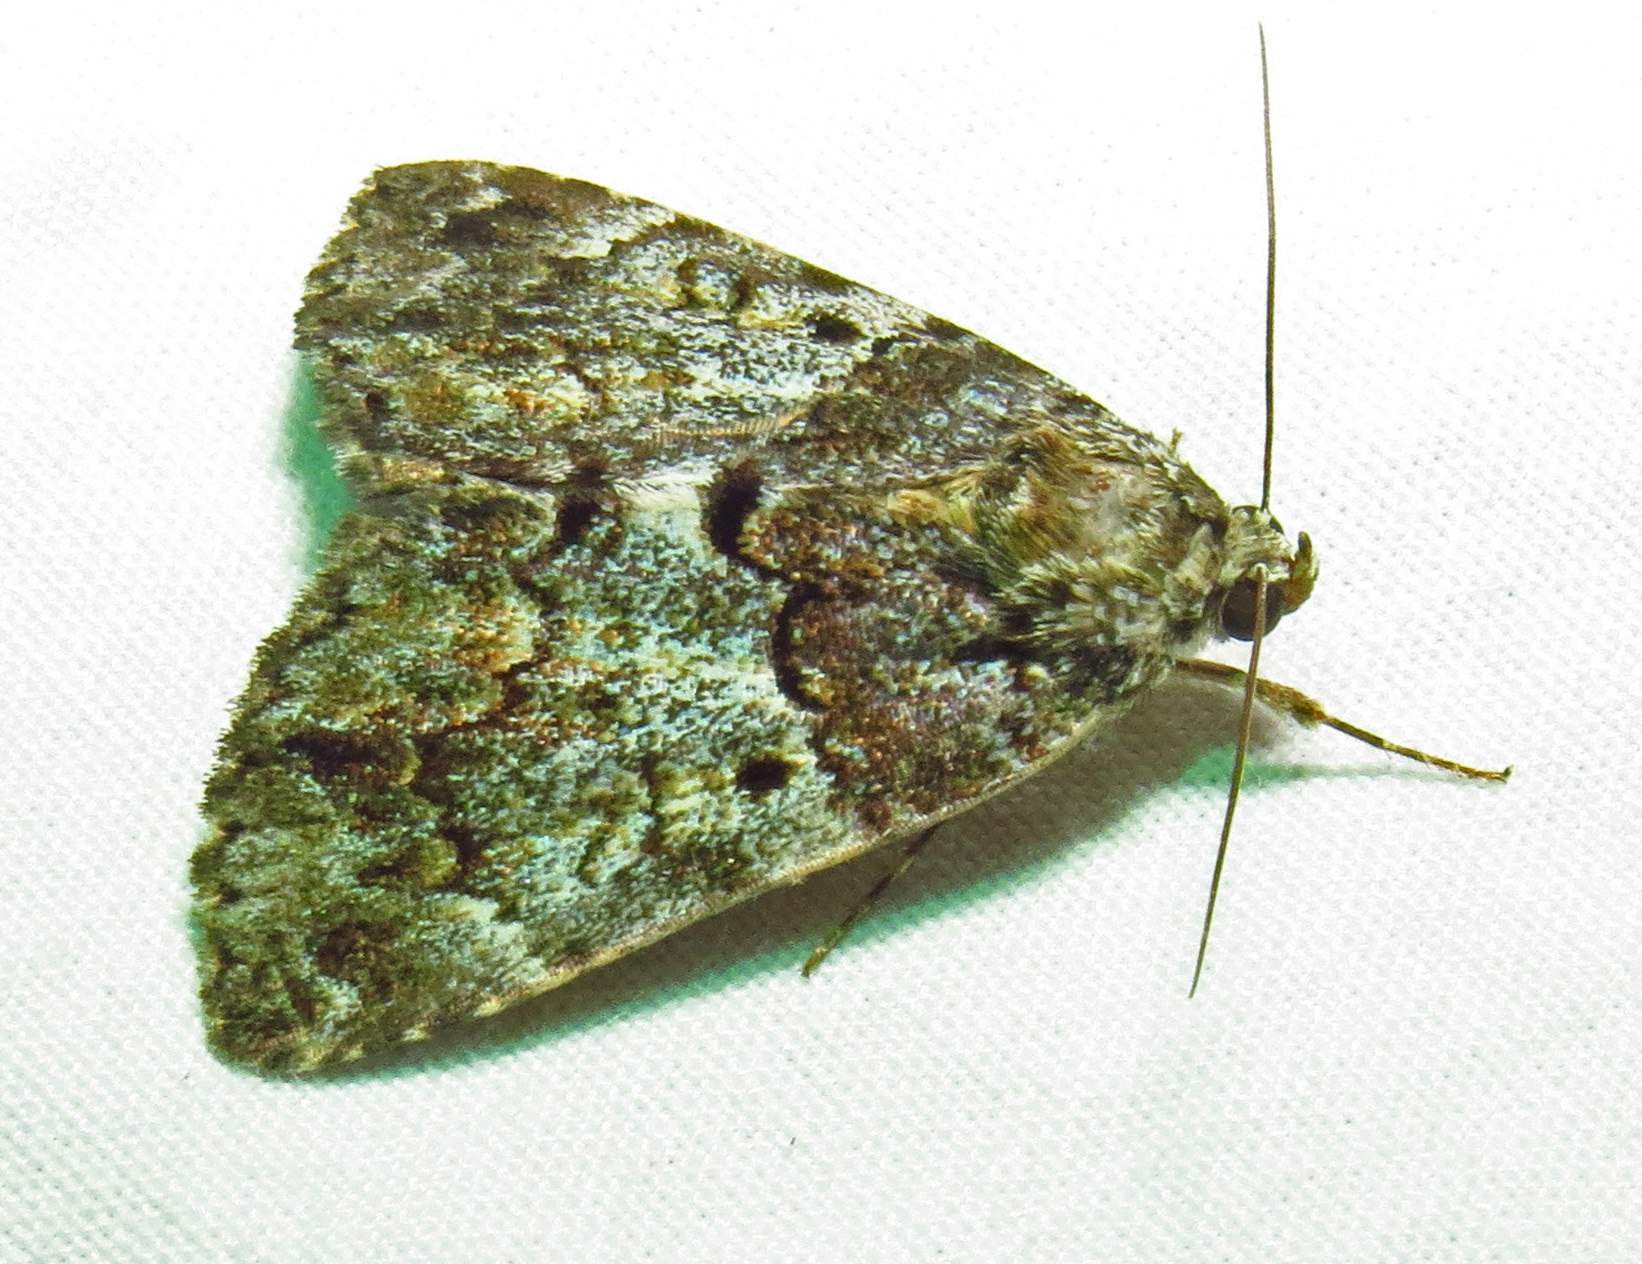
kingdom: Animalia
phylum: Arthropoda
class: Insecta
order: Lepidoptera
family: Erebidae
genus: Allotria
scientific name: Allotria elonympha
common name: False underwing
